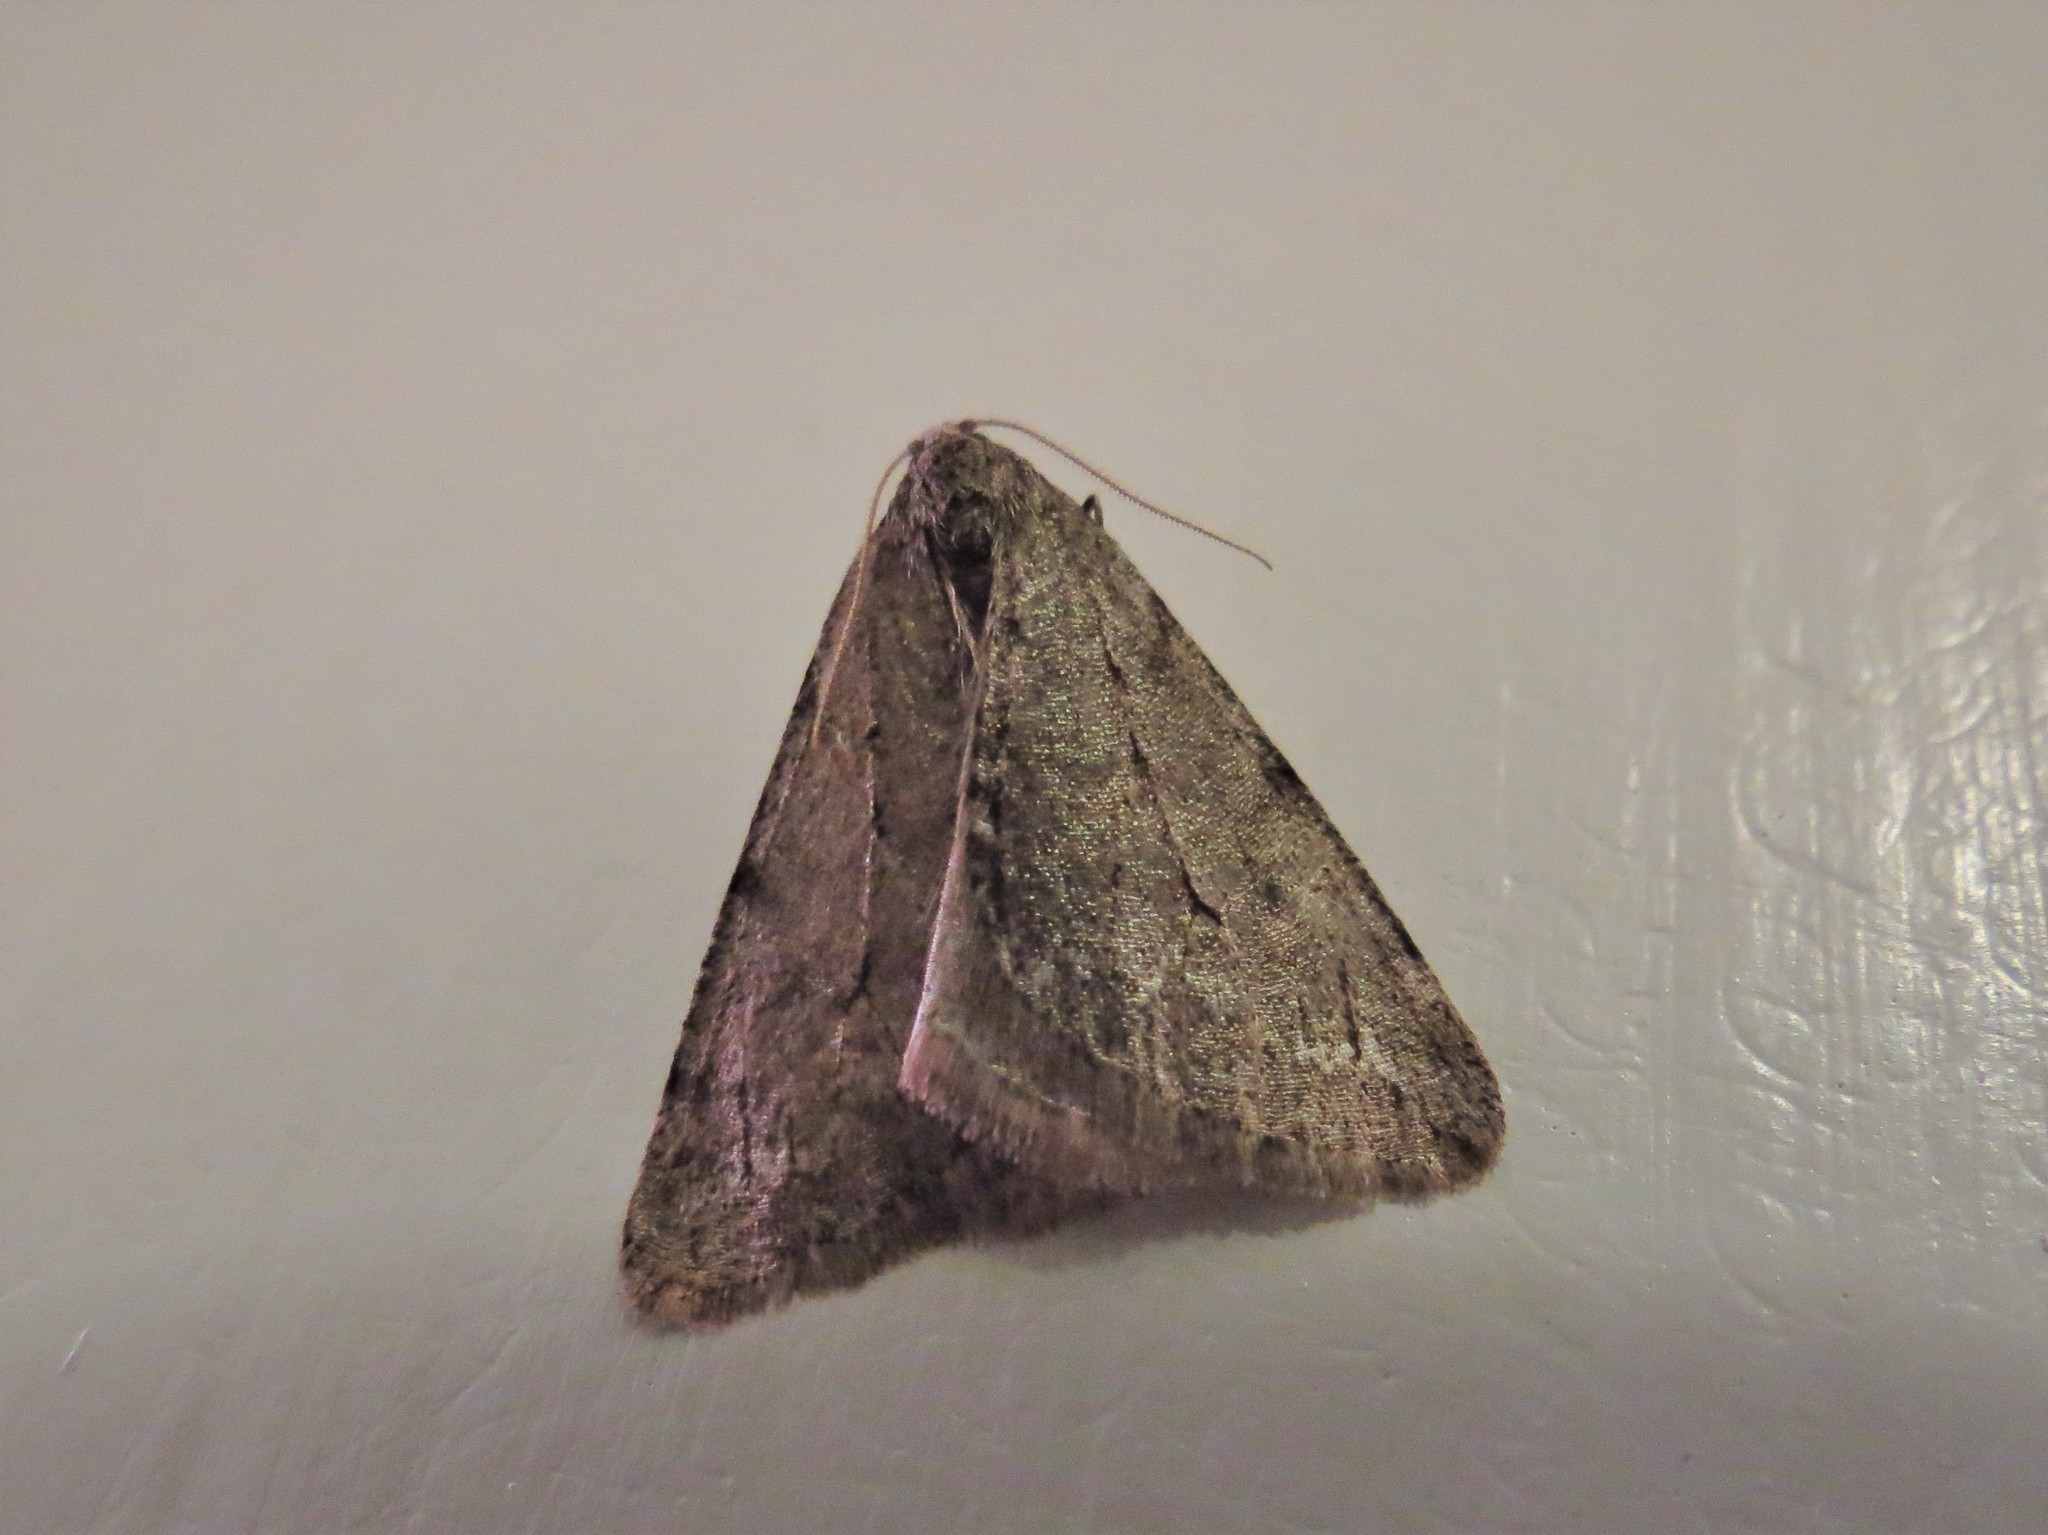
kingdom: Animalia
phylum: Arthropoda
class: Insecta
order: Lepidoptera
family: Geometridae
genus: Paleacrita
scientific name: Paleacrita vernata
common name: Spring cankerworm
